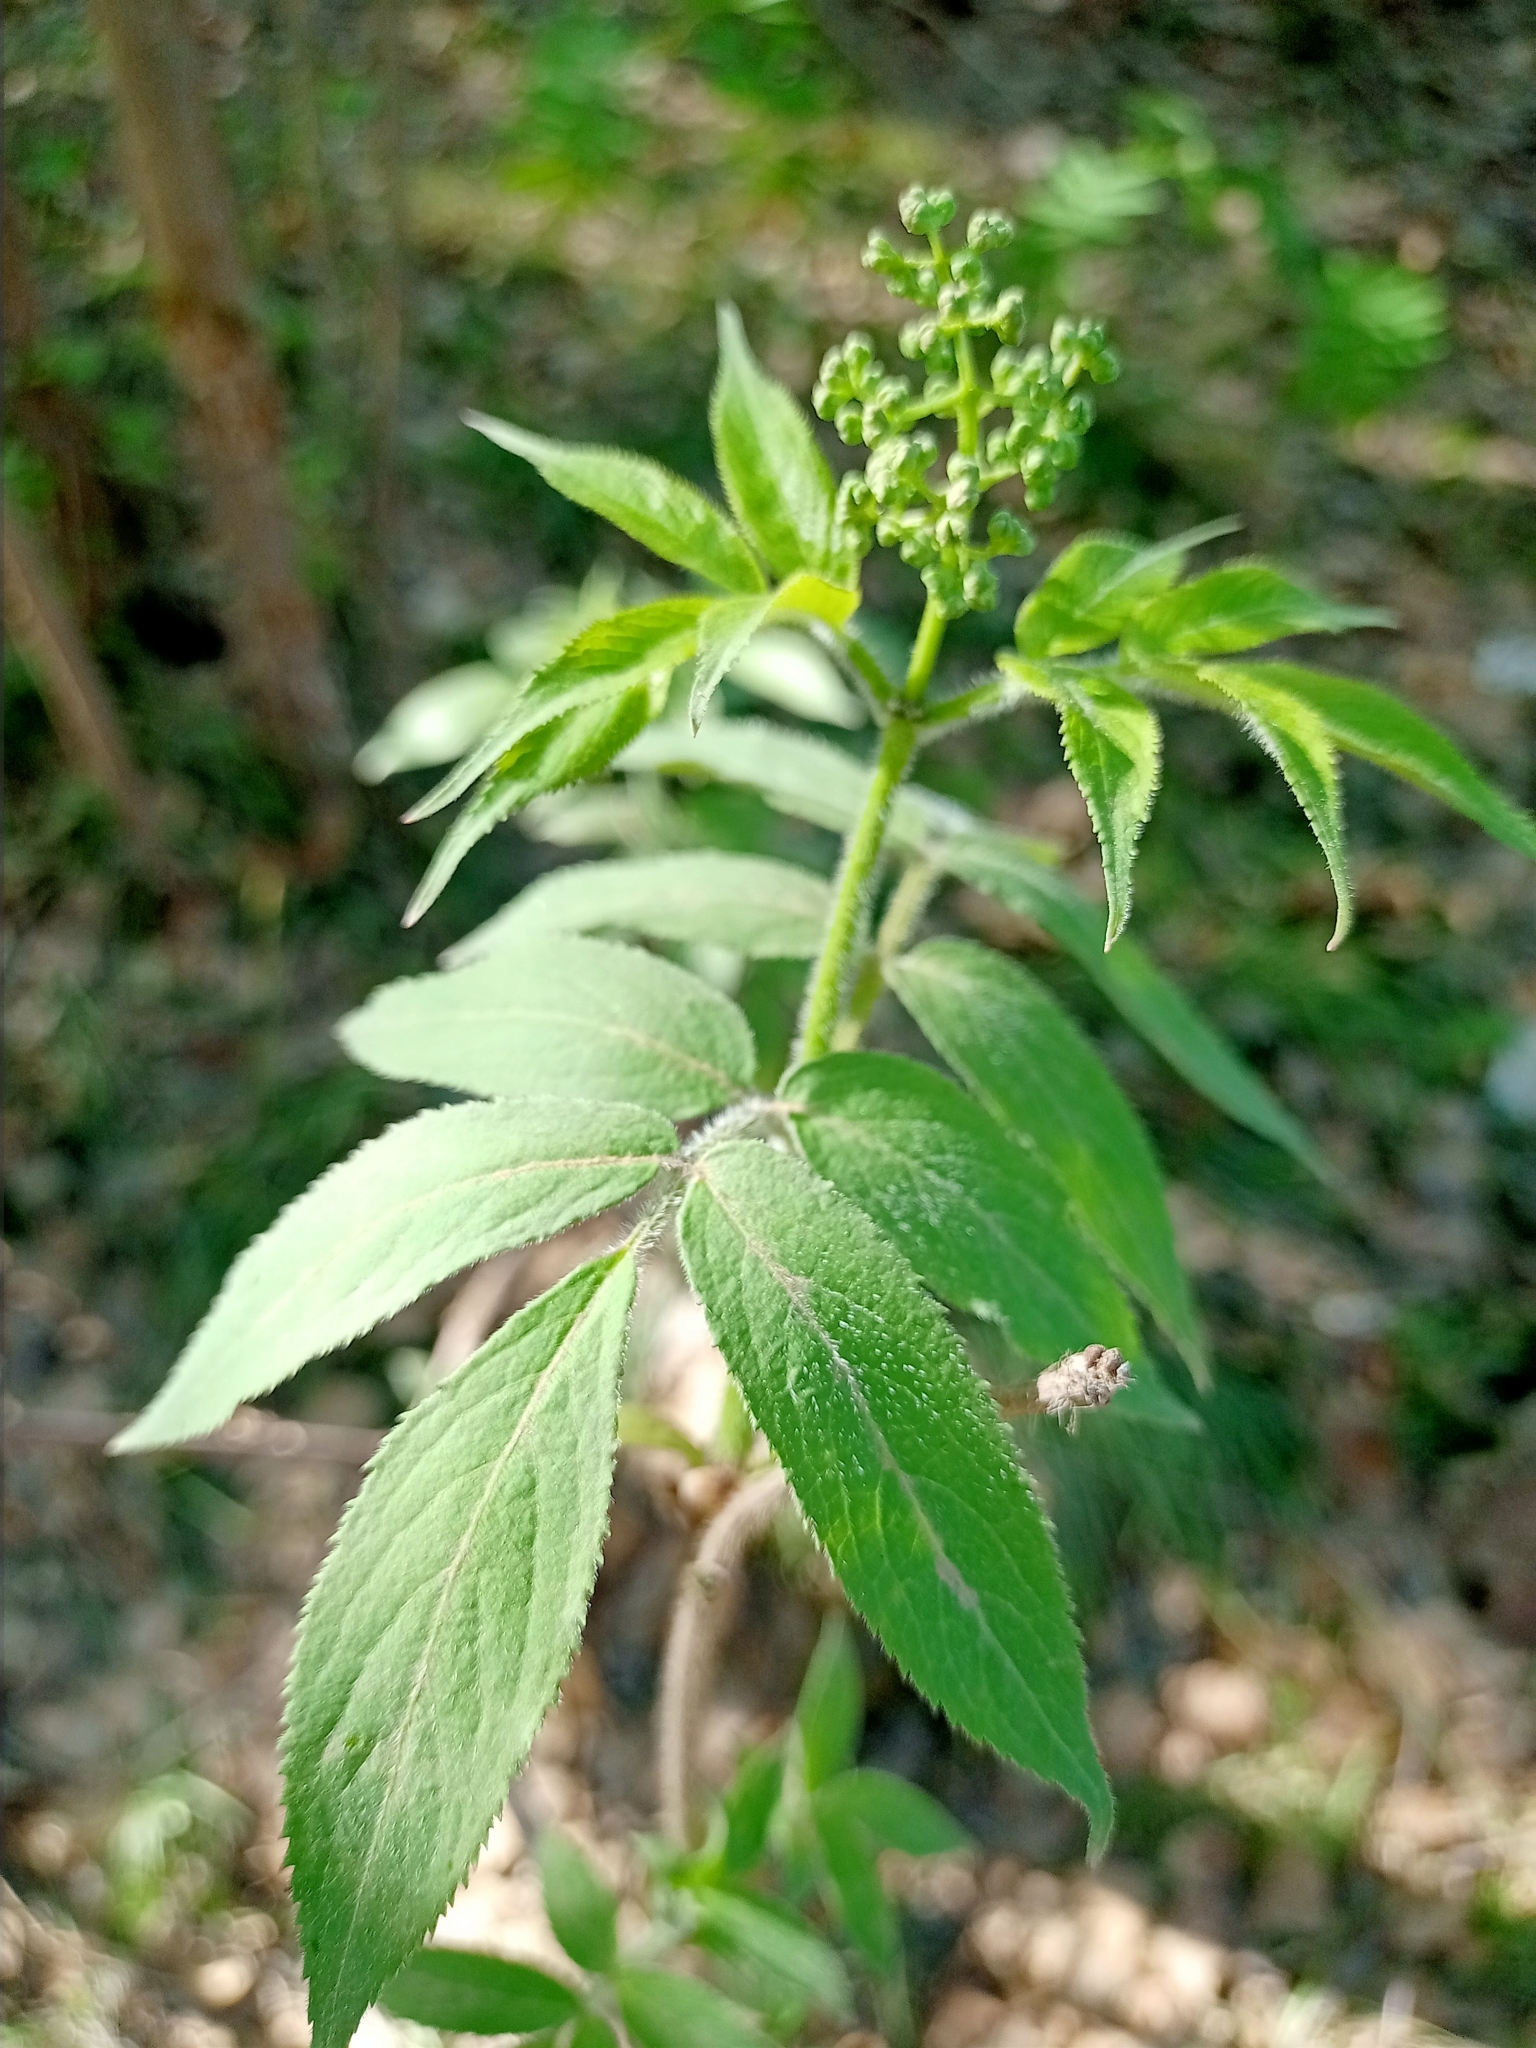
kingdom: Plantae
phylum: Tracheophyta
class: Magnoliopsida
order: Dipsacales
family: Viburnaceae
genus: Sambucus
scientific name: Sambucus sibirica
